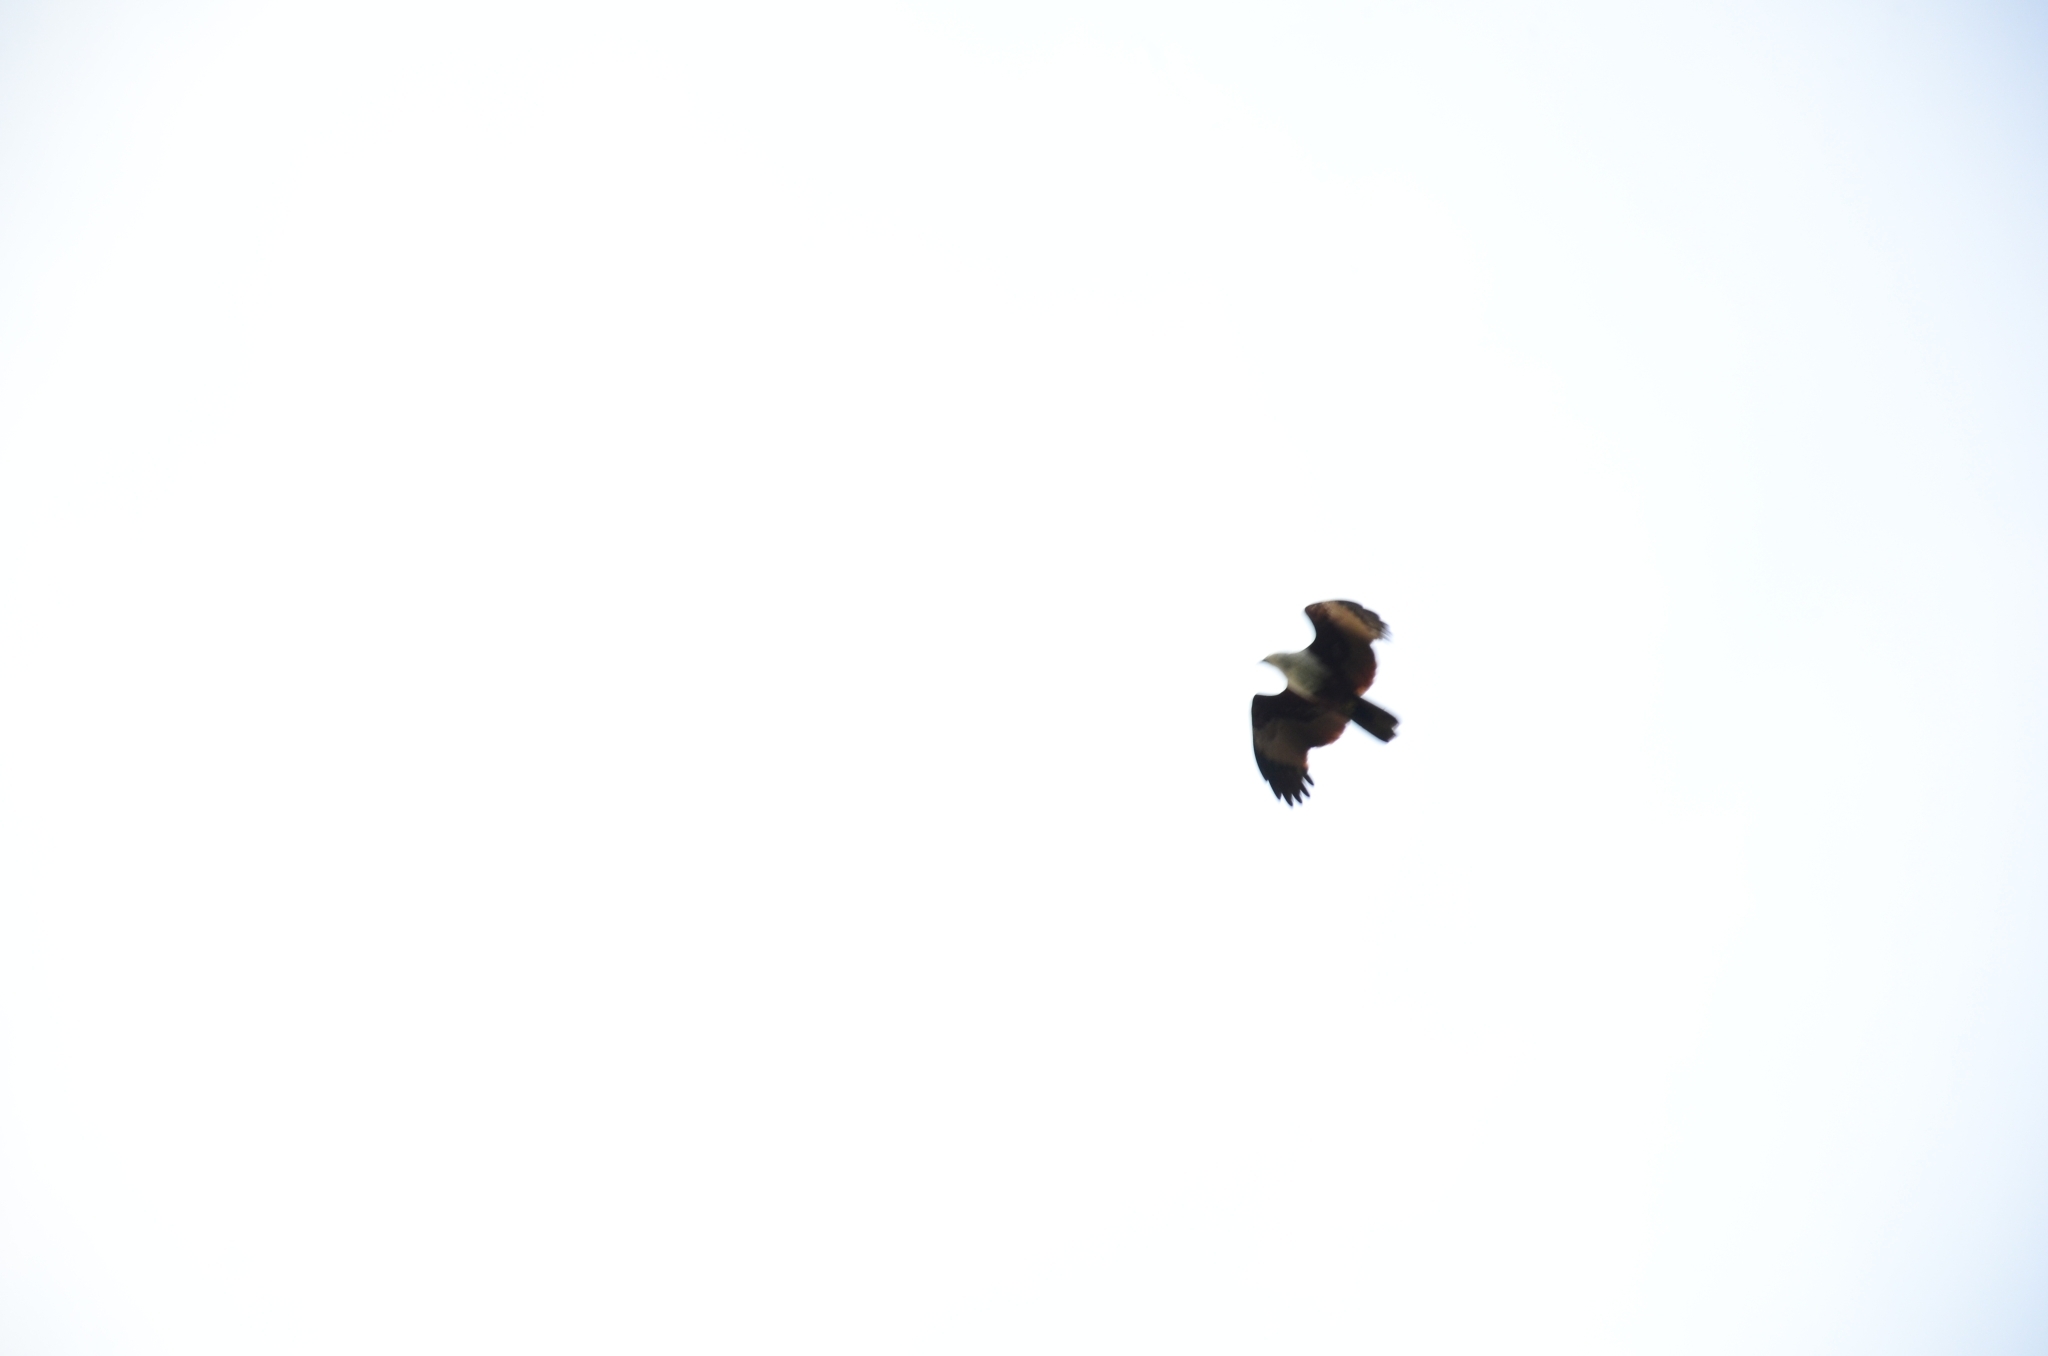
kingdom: Animalia
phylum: Chordata
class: Aves
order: Accipitriformes
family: Accipitridae
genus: Haliastur
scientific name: Haliastur indus
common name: Brahminy kite
